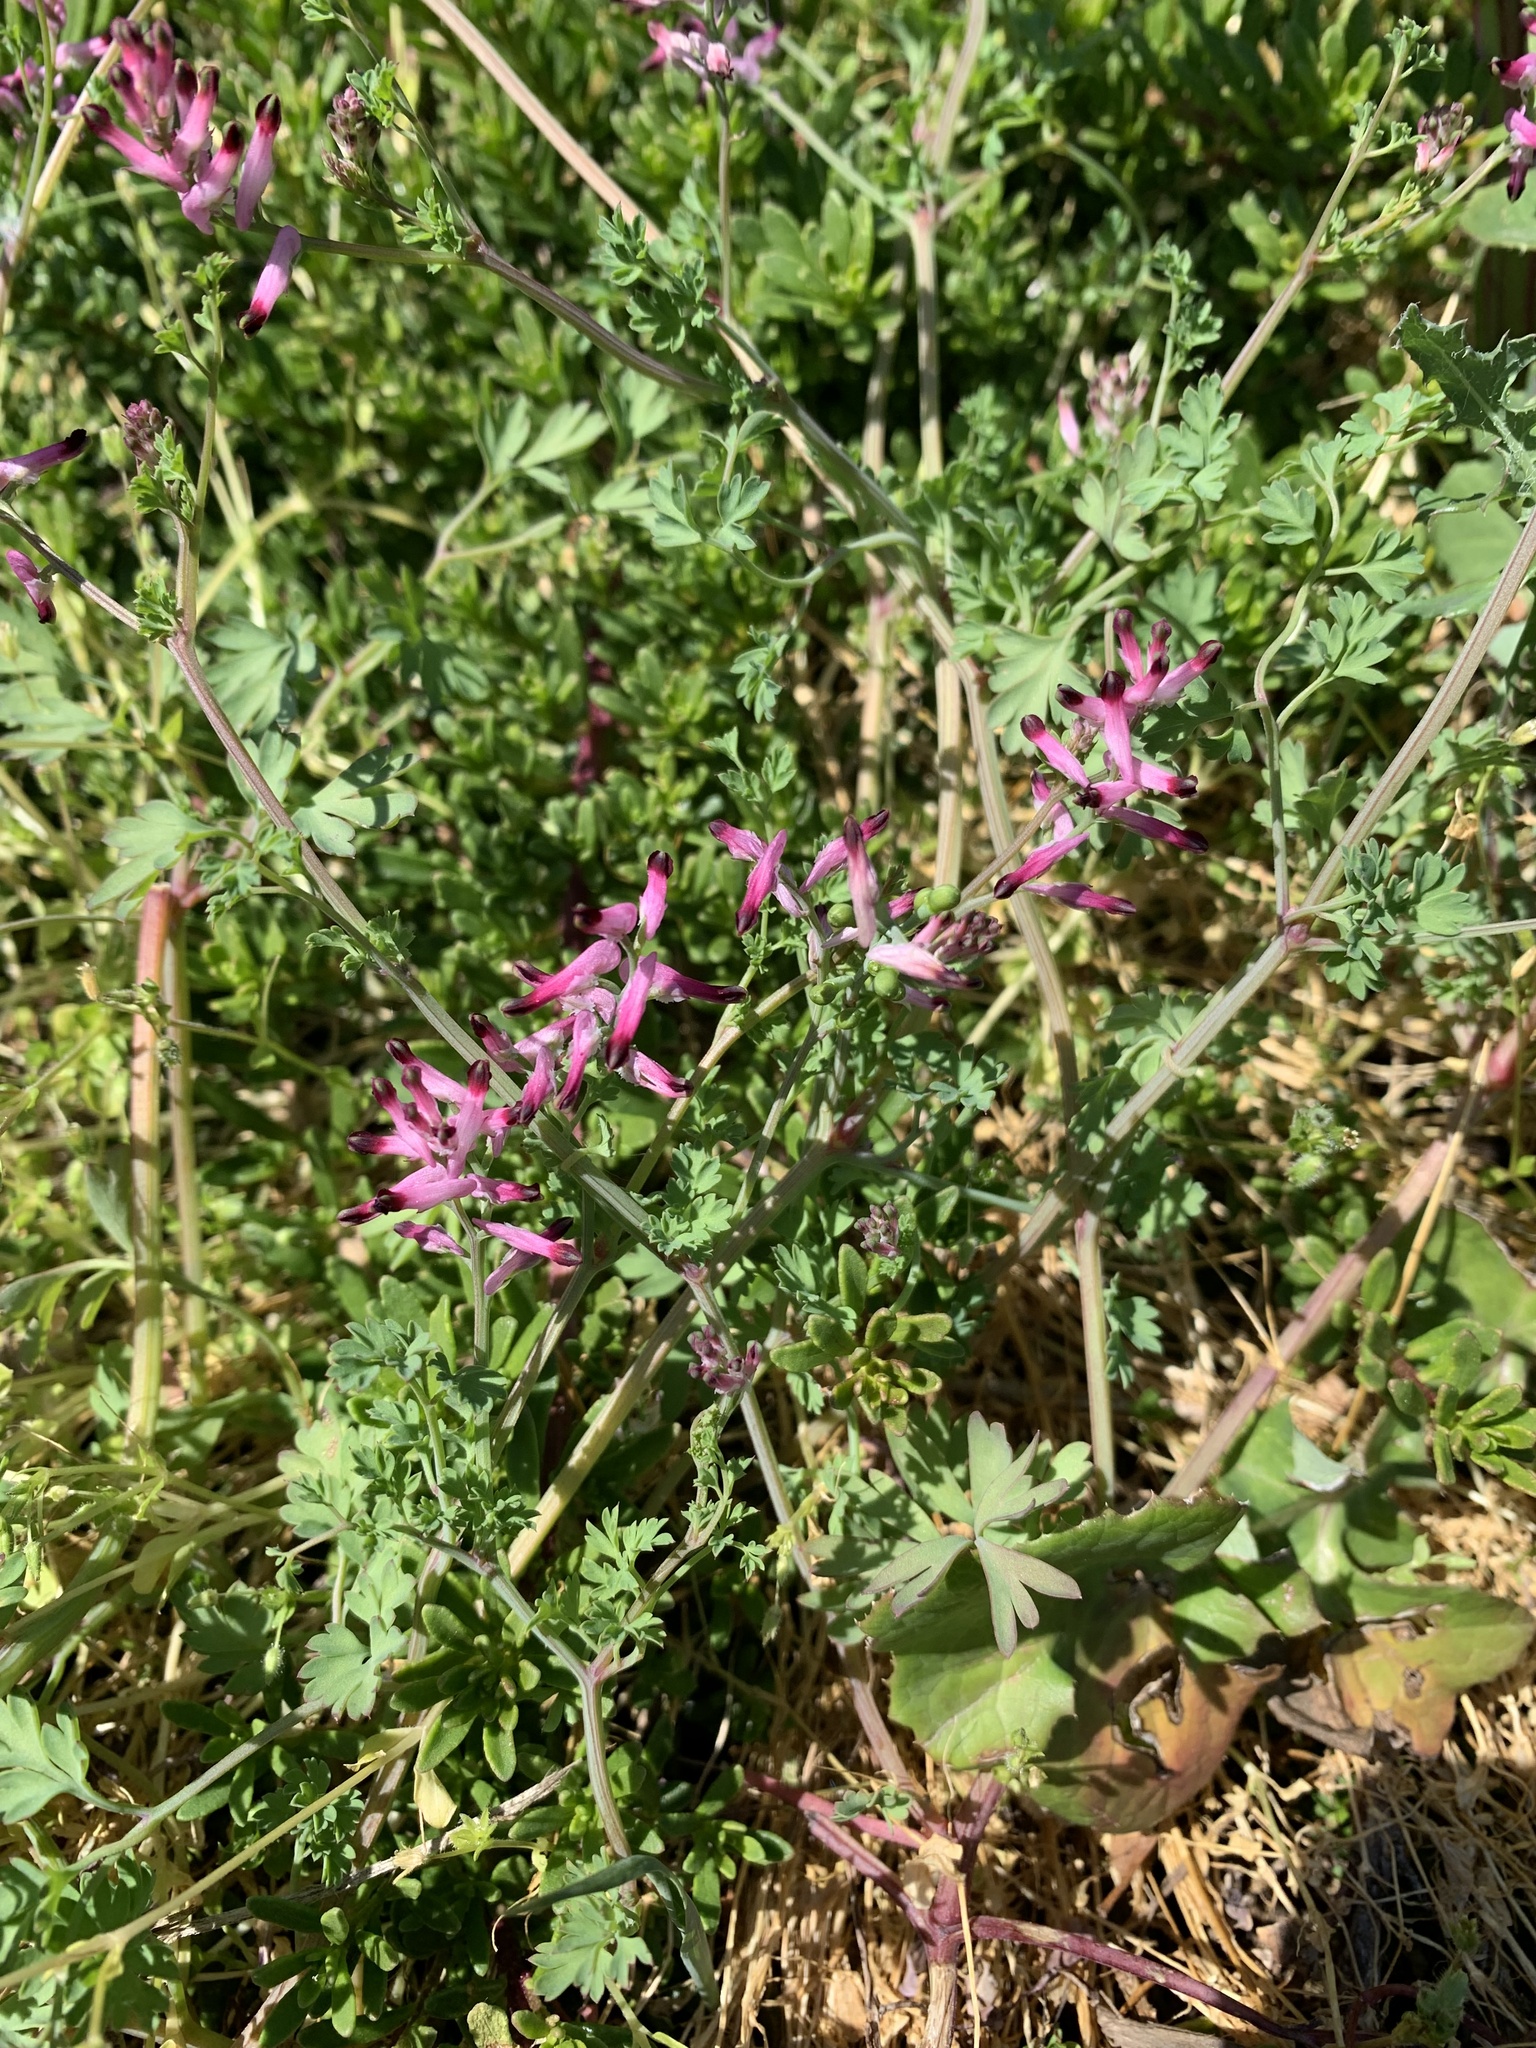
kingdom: Plantae
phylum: Tracheophyta
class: Magnoliopsida
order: Ranunculales
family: Papaveraceae
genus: Fumaria
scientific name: Fumaria muralis
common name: Common ramping-fumitory
